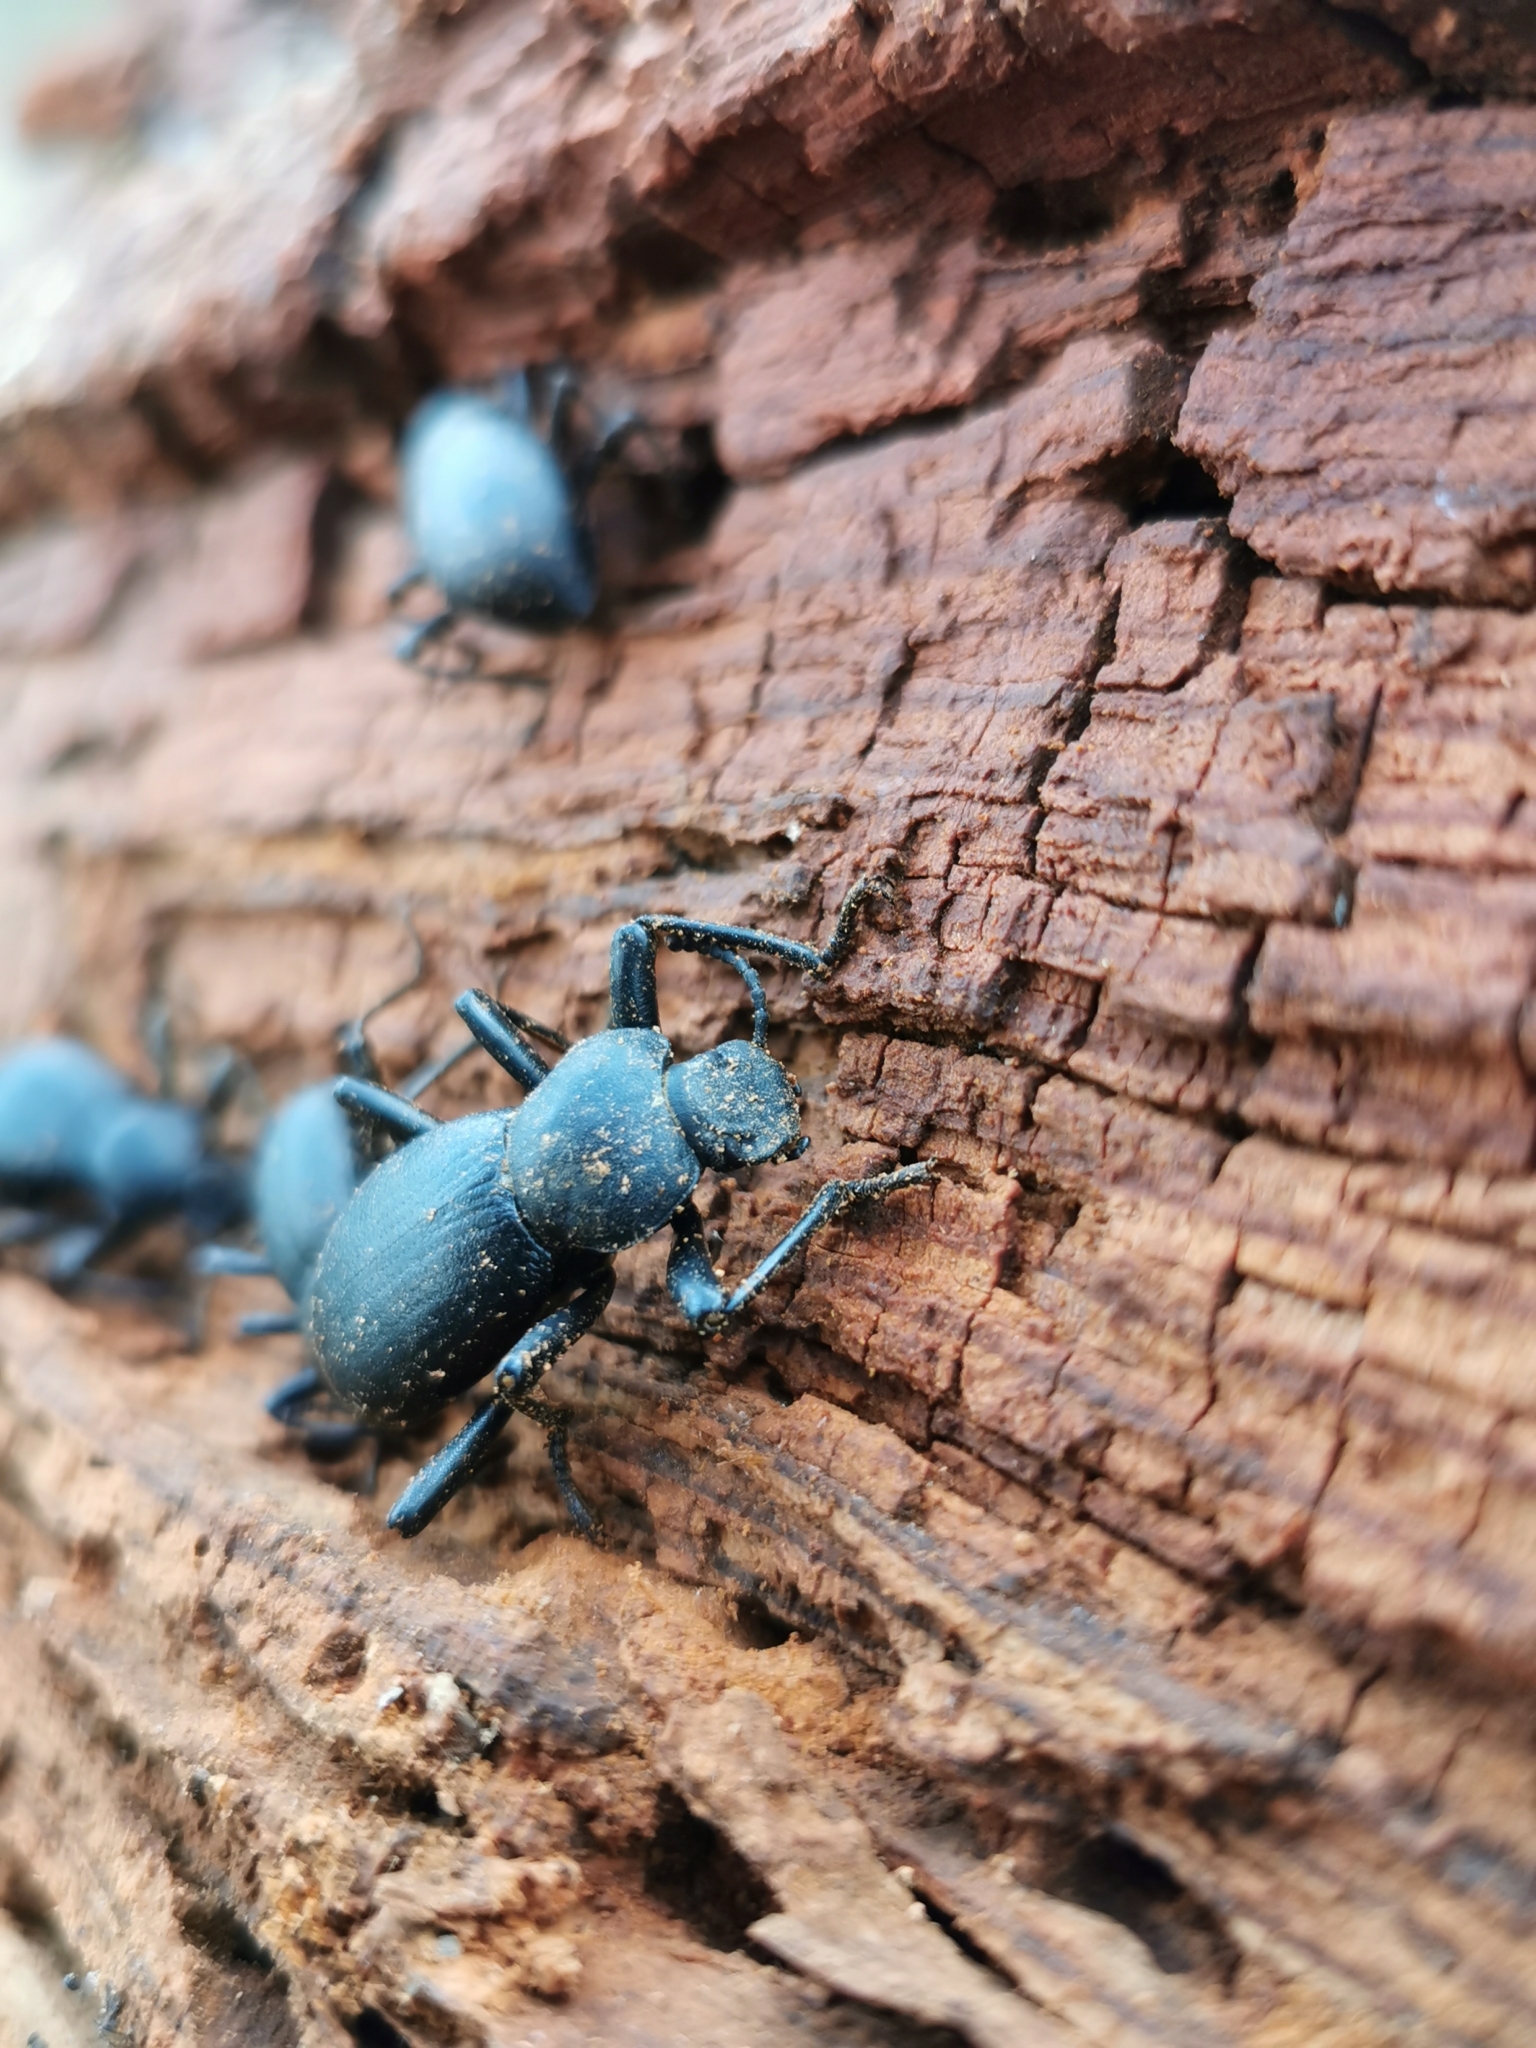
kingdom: Animalia
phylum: Arthropoda
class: Insecta
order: Coleoptera
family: Tenebrionidae
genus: Coelocnemis
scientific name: Coelocnemis dilaticollis
